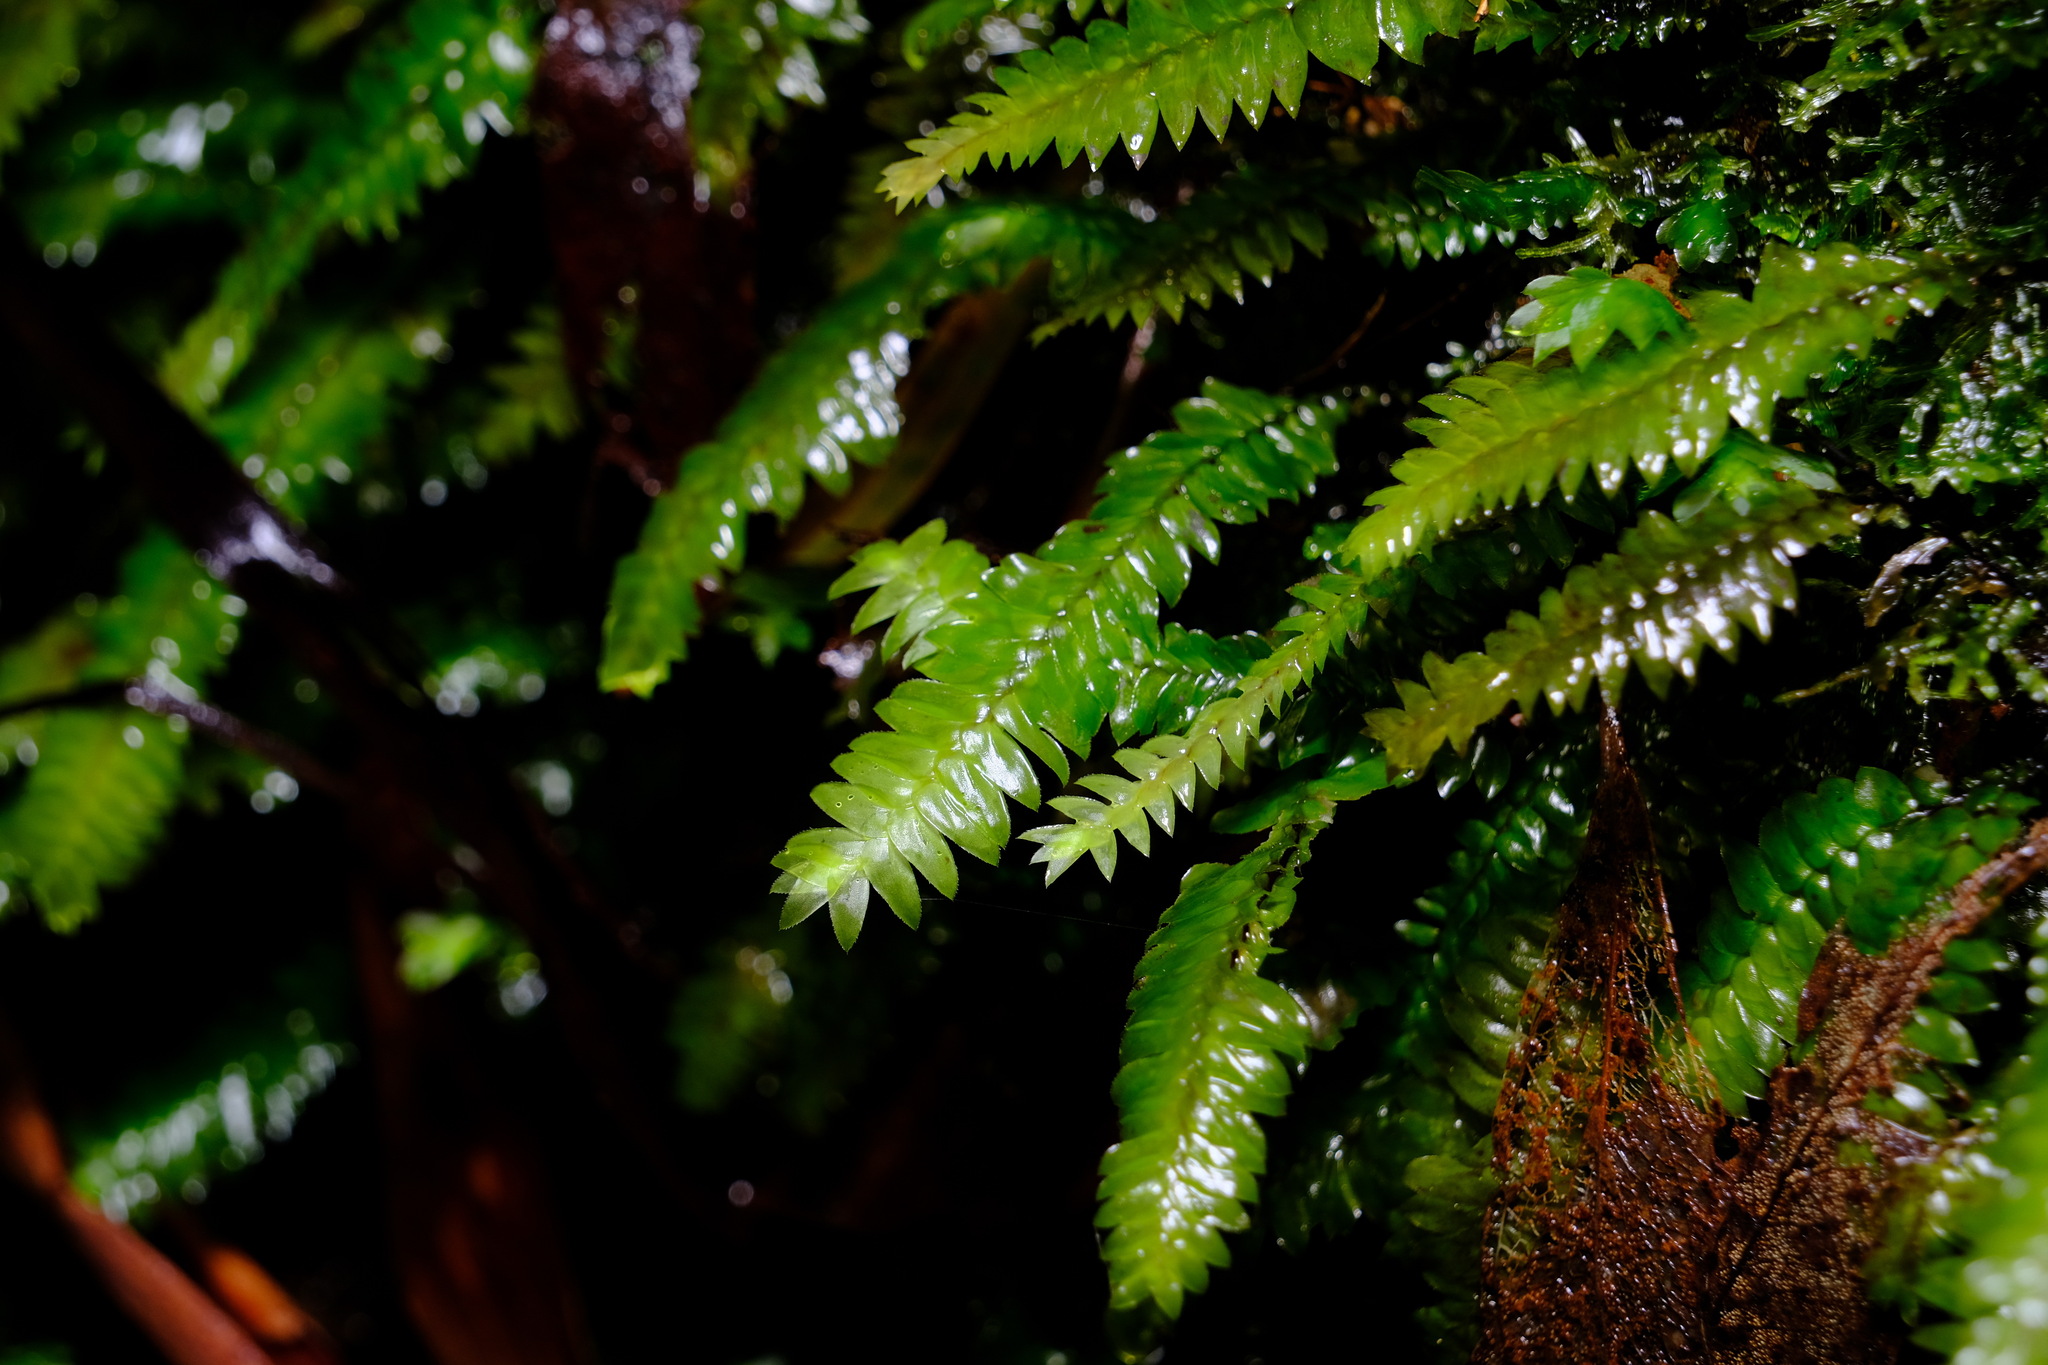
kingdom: Plantae
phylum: Bryophyta
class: Bryopsida
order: Hypopterygiales
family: Hypopterygiaceae
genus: Cyathophorum
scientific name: Cyathophorum bulbosum
